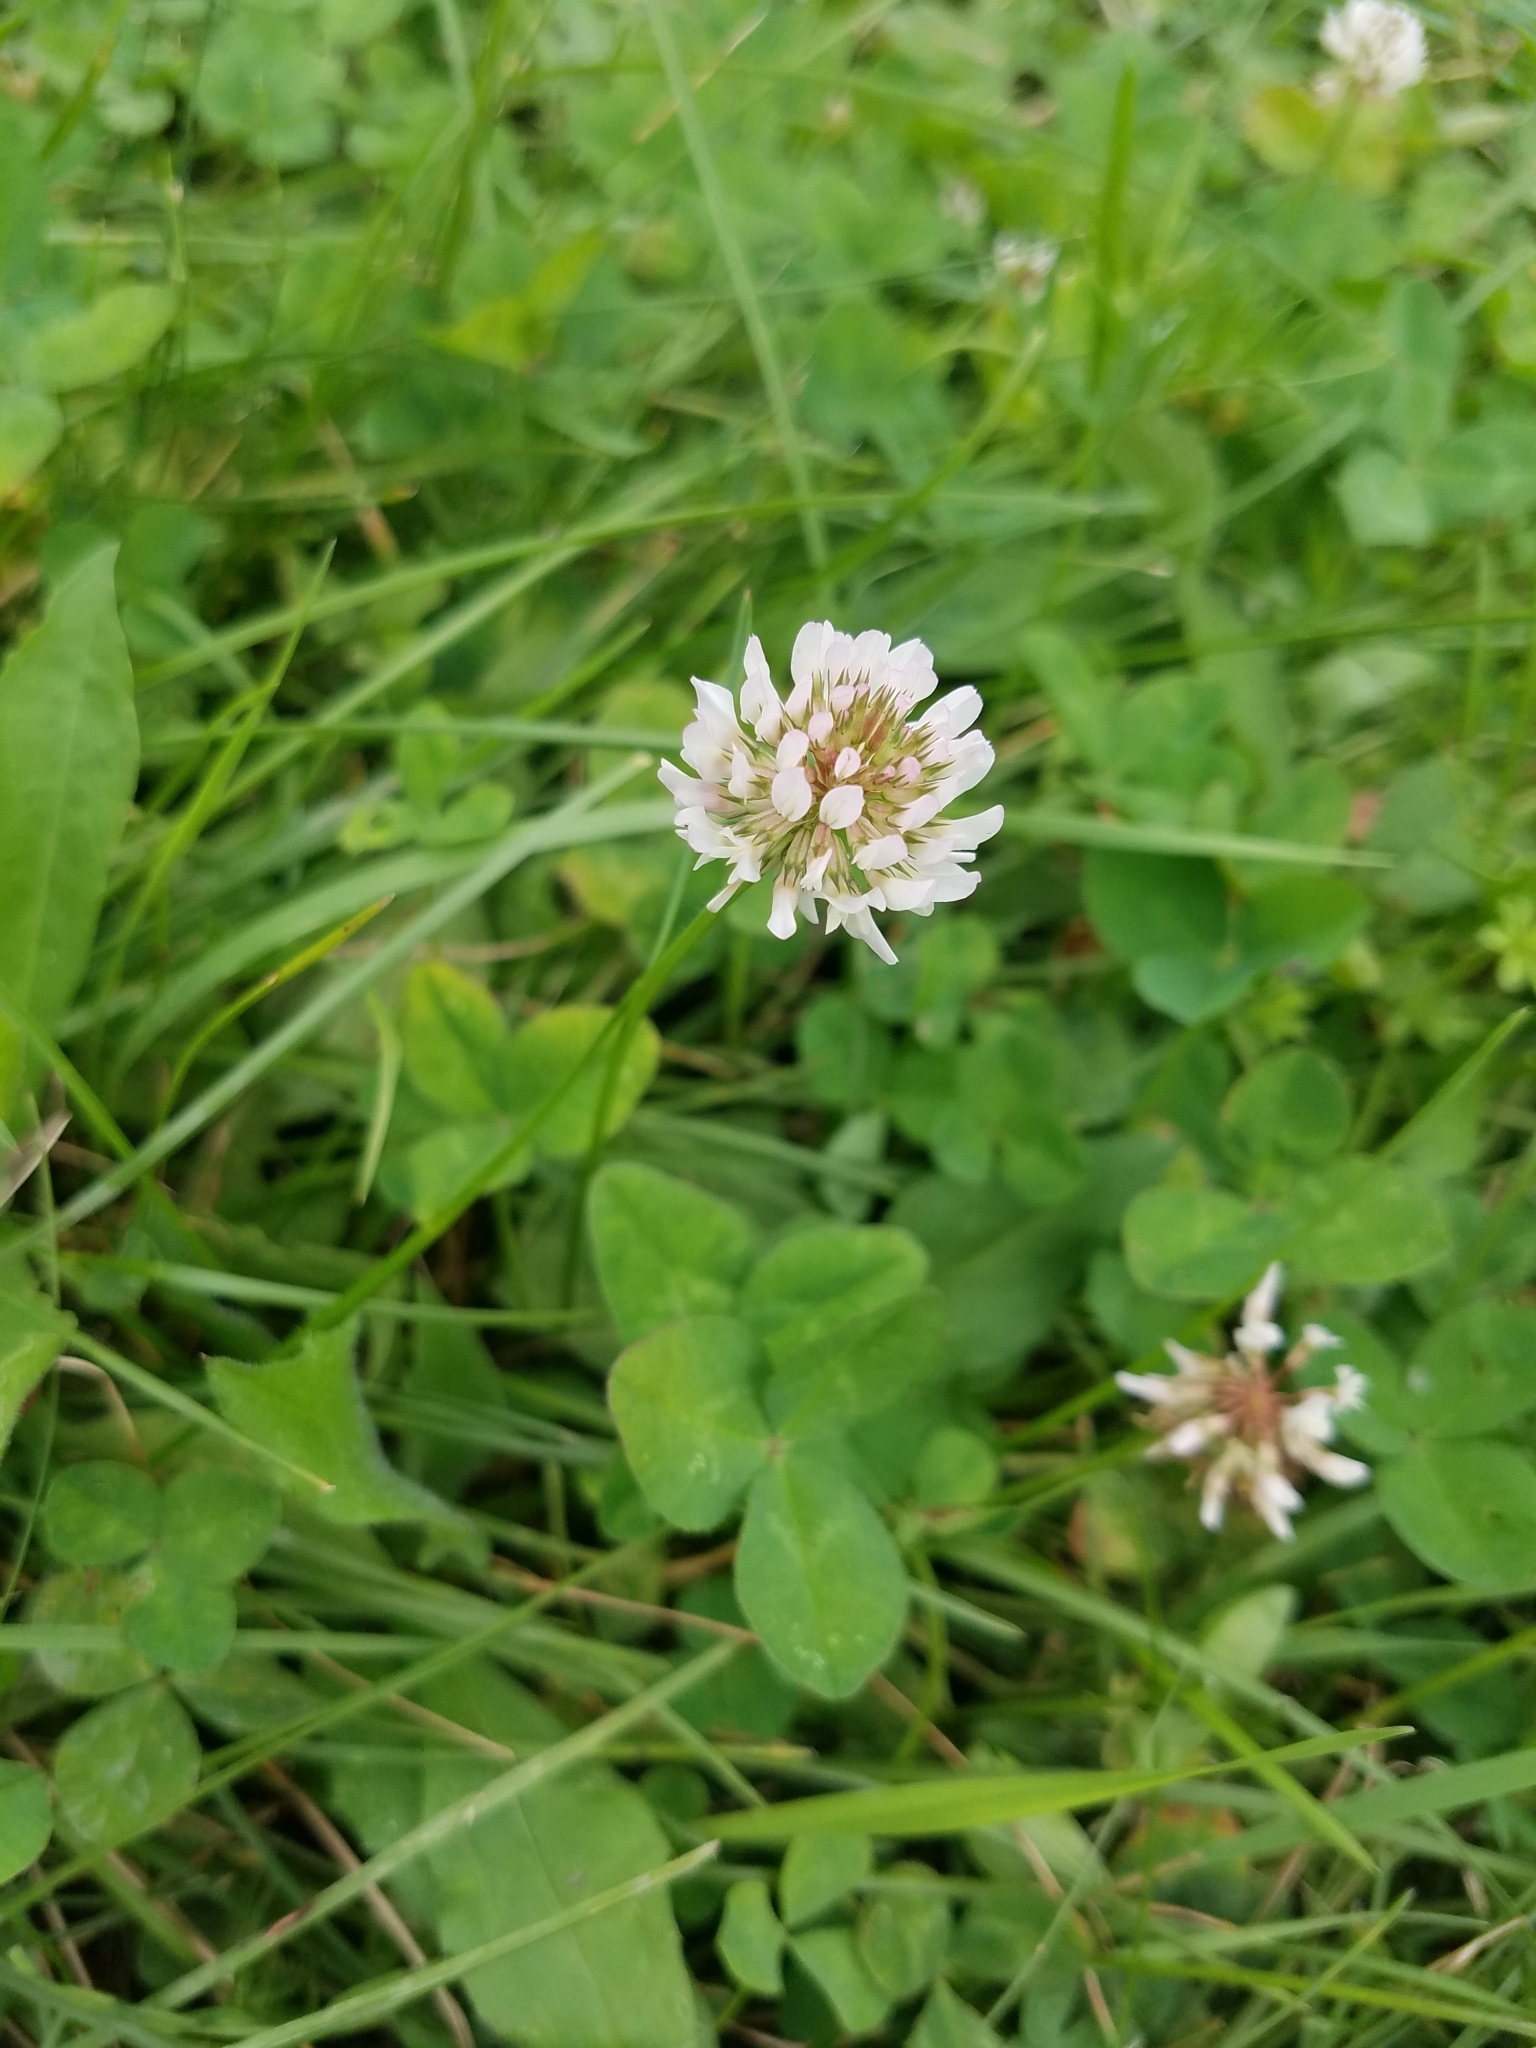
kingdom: Plantae
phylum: Tracheophyta
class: Magnoliopsida
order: Fabales
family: Fabaceae
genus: Trifolium
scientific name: Trifolium repens
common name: White clover
